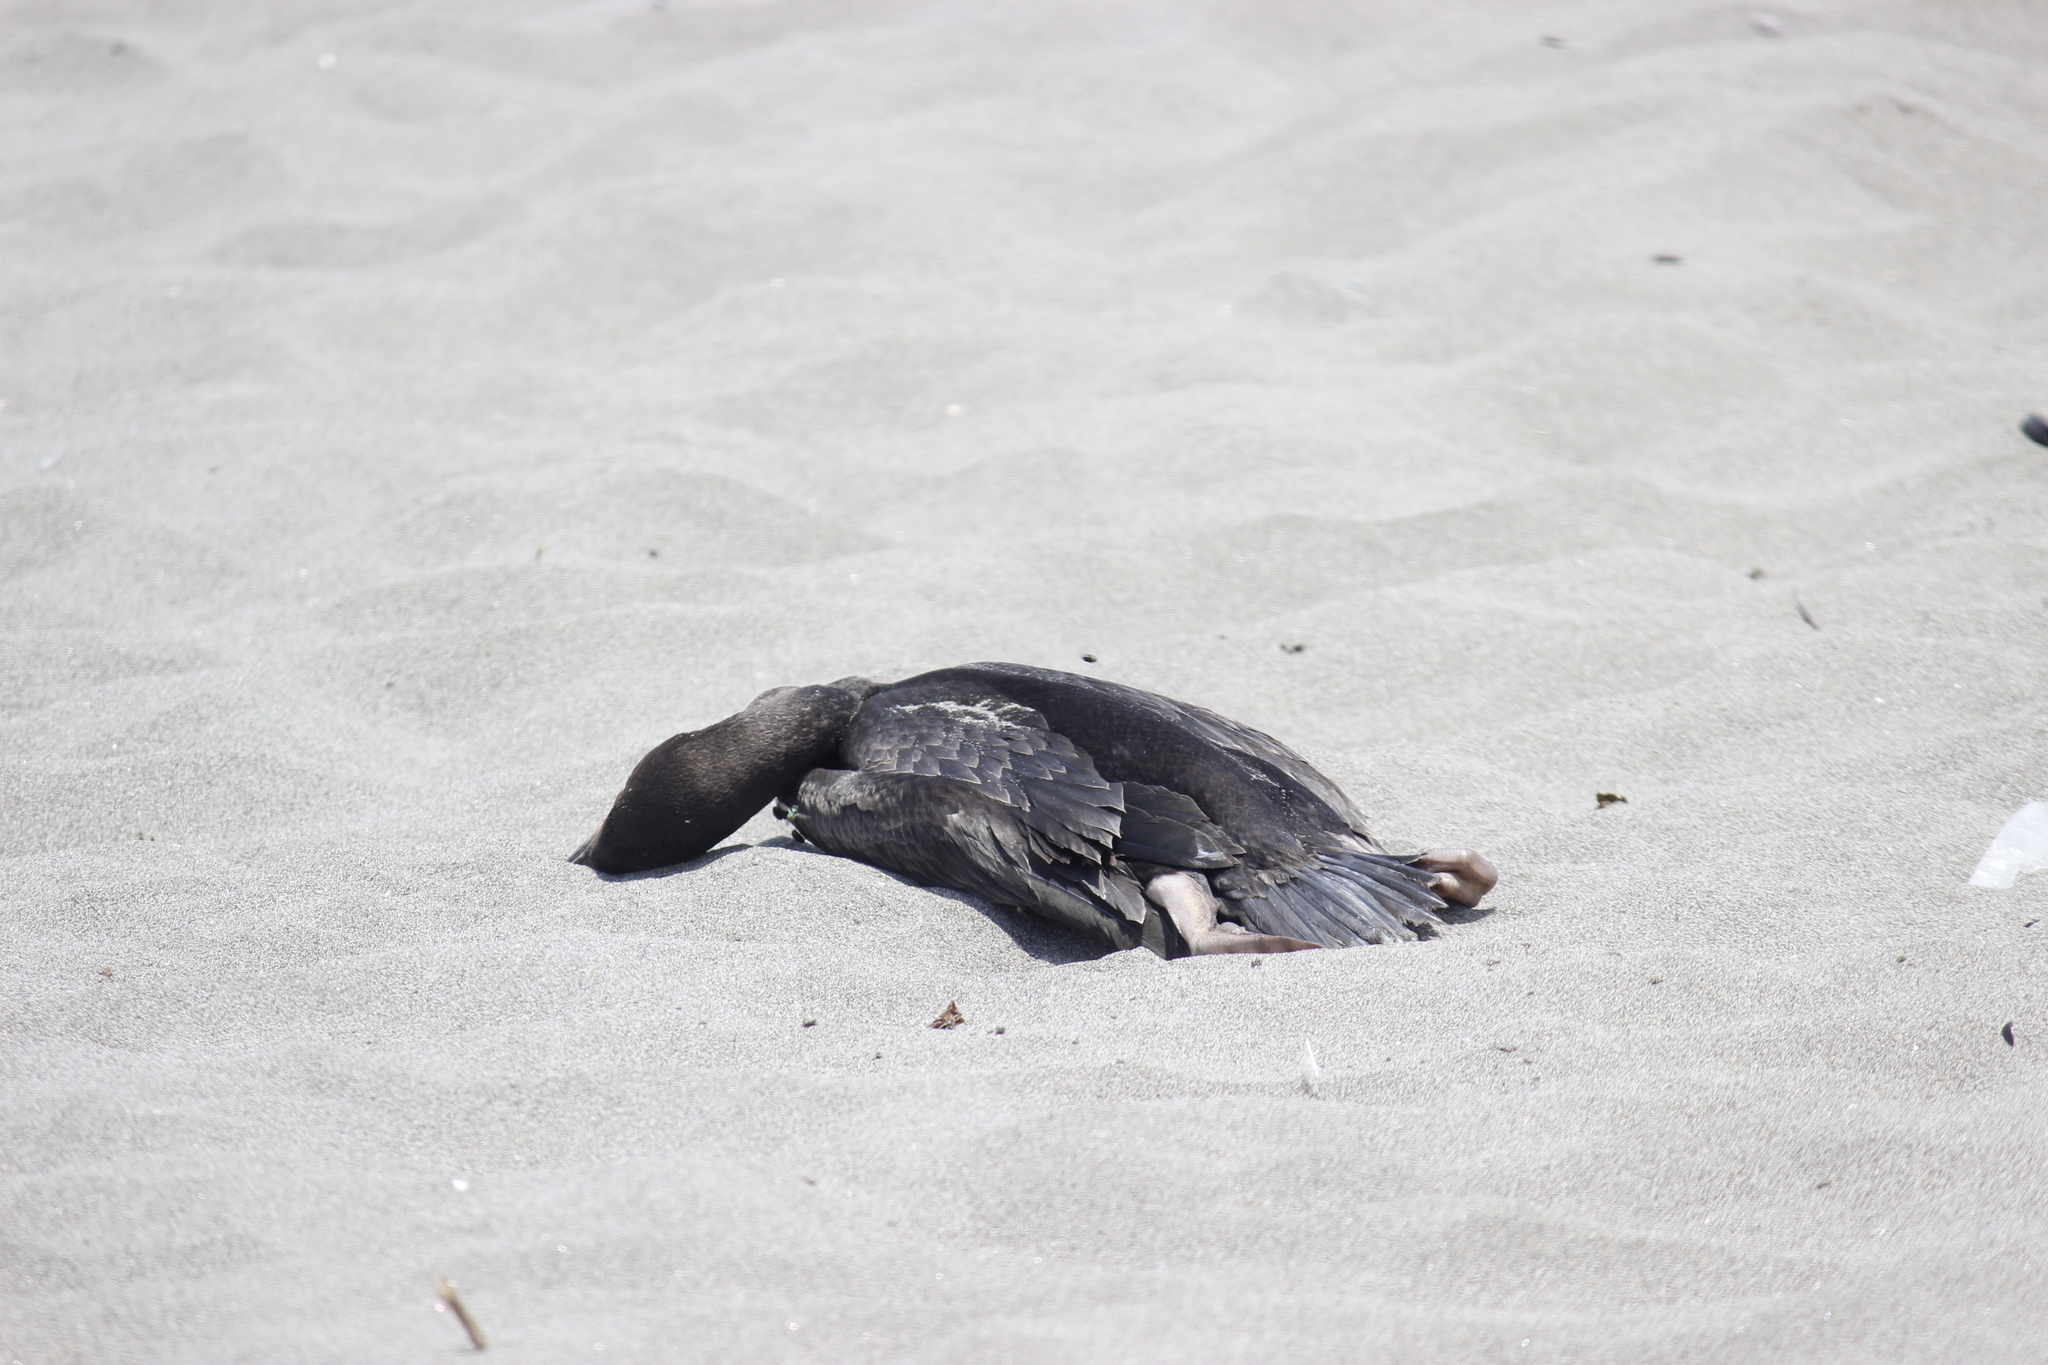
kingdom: Animalia
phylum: Chordata
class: Aves
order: Suliformes
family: Phalacrocoracidae
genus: Leucocarbo
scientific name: Leucocarbo bougainvillii
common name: Guanay cormorant
